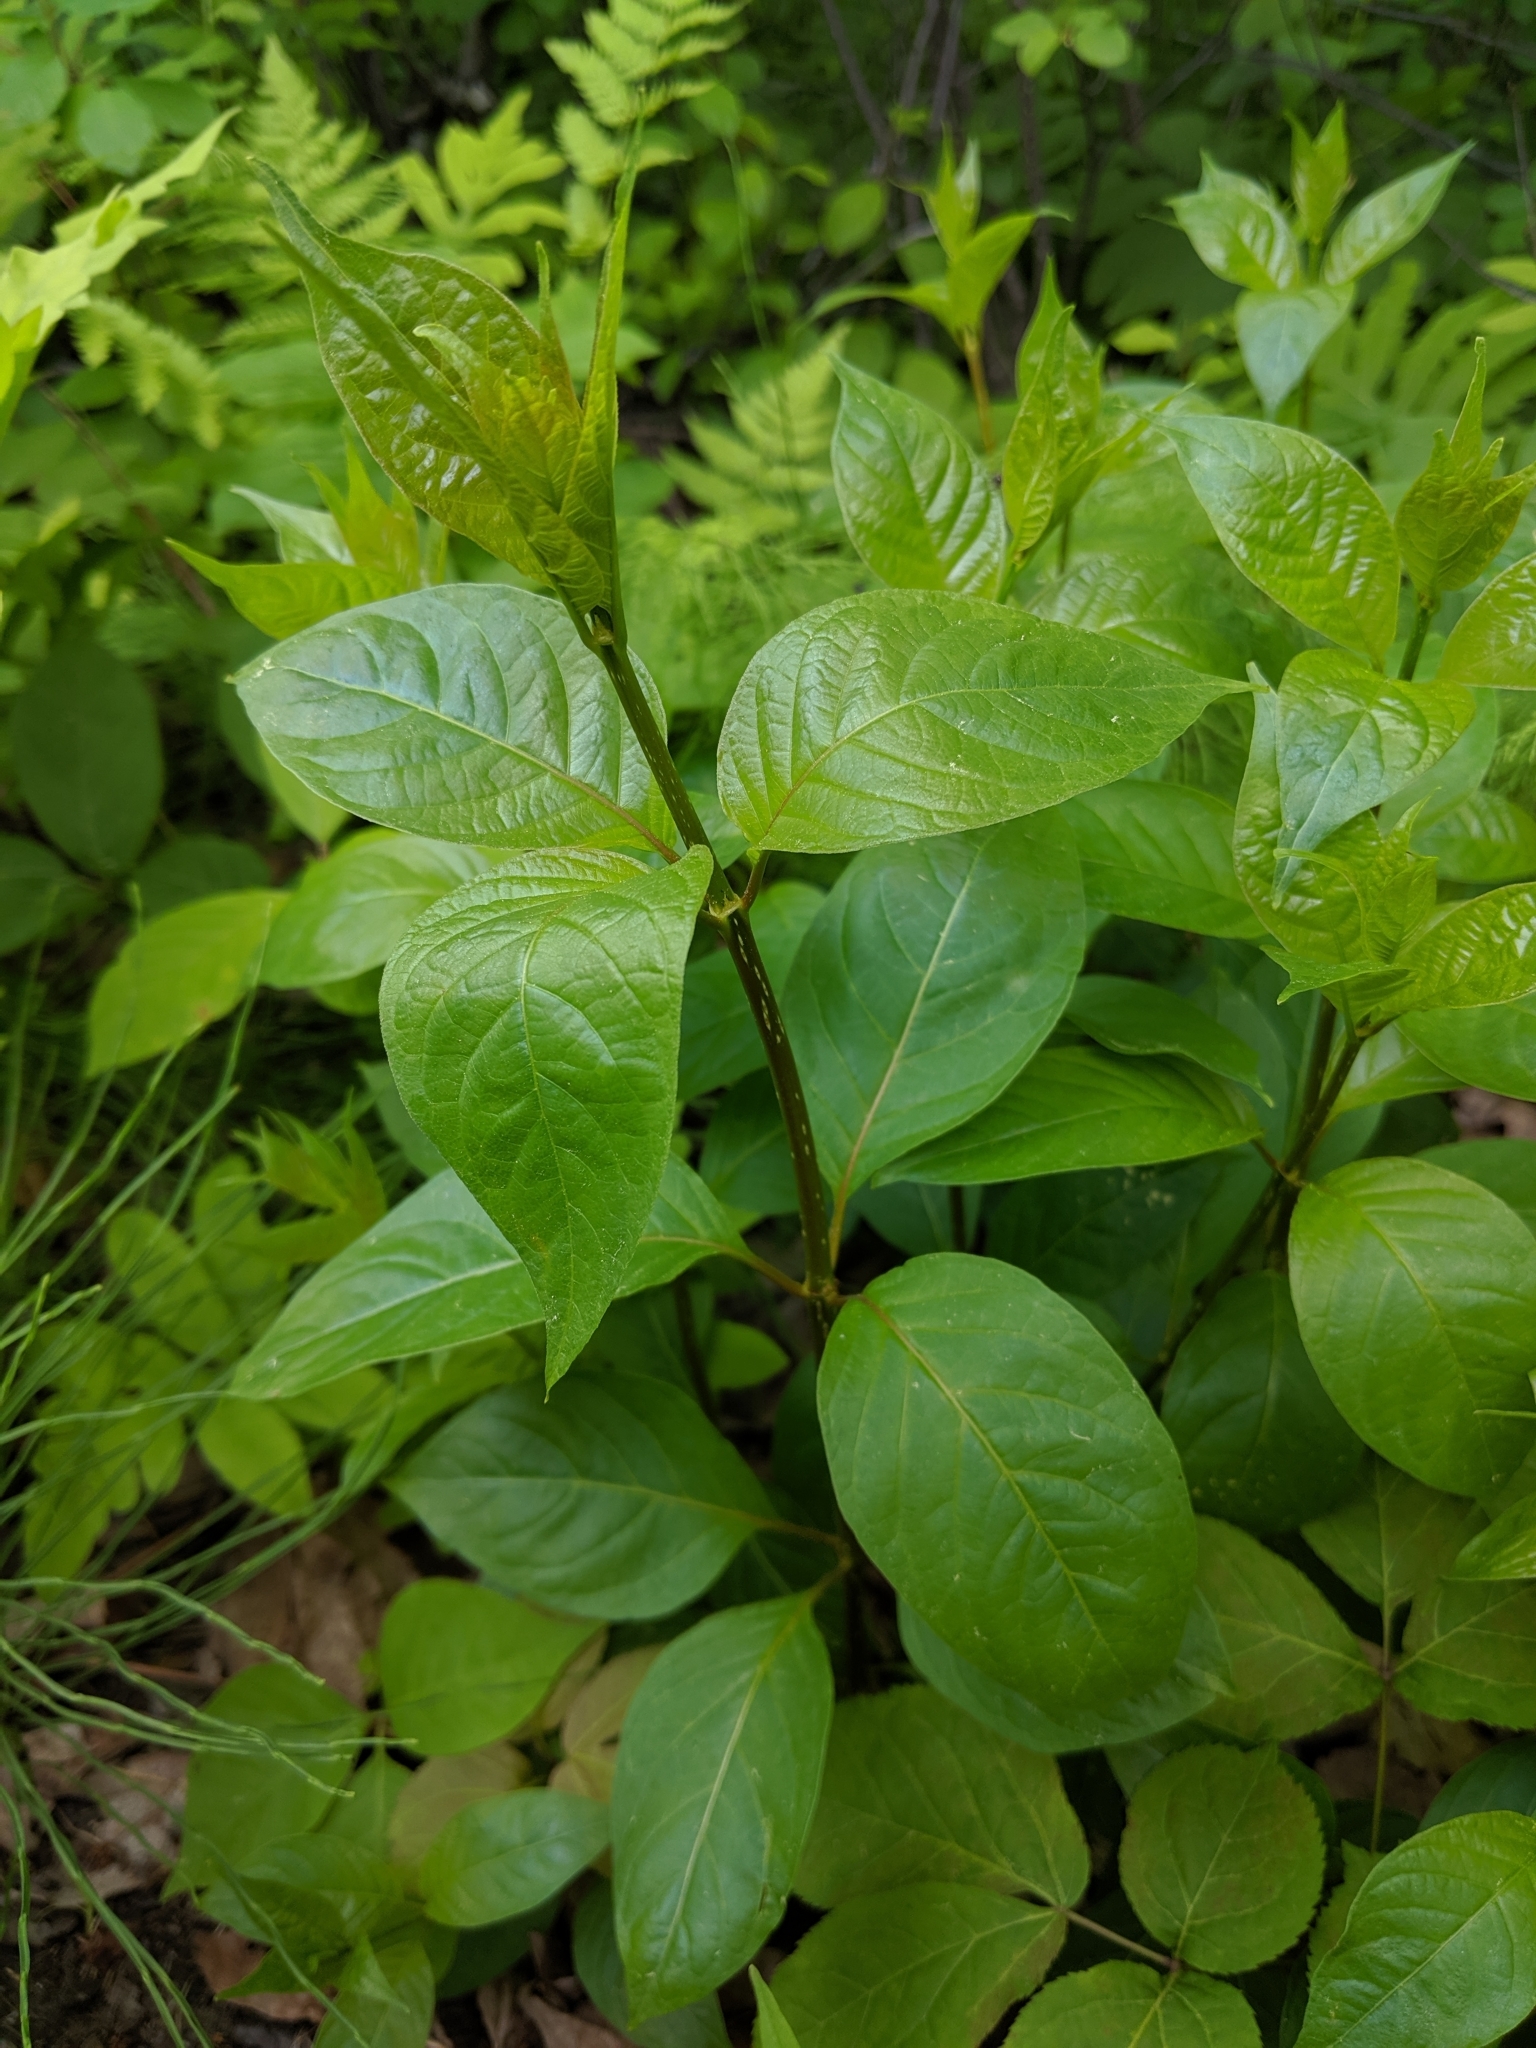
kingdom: Plantae
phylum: Tracheophyta
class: Magnoliopsida
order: Gentianales
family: Rubiaceae
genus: Cephalanthus
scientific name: Cephalanthus occidentalis
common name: Button-willow
